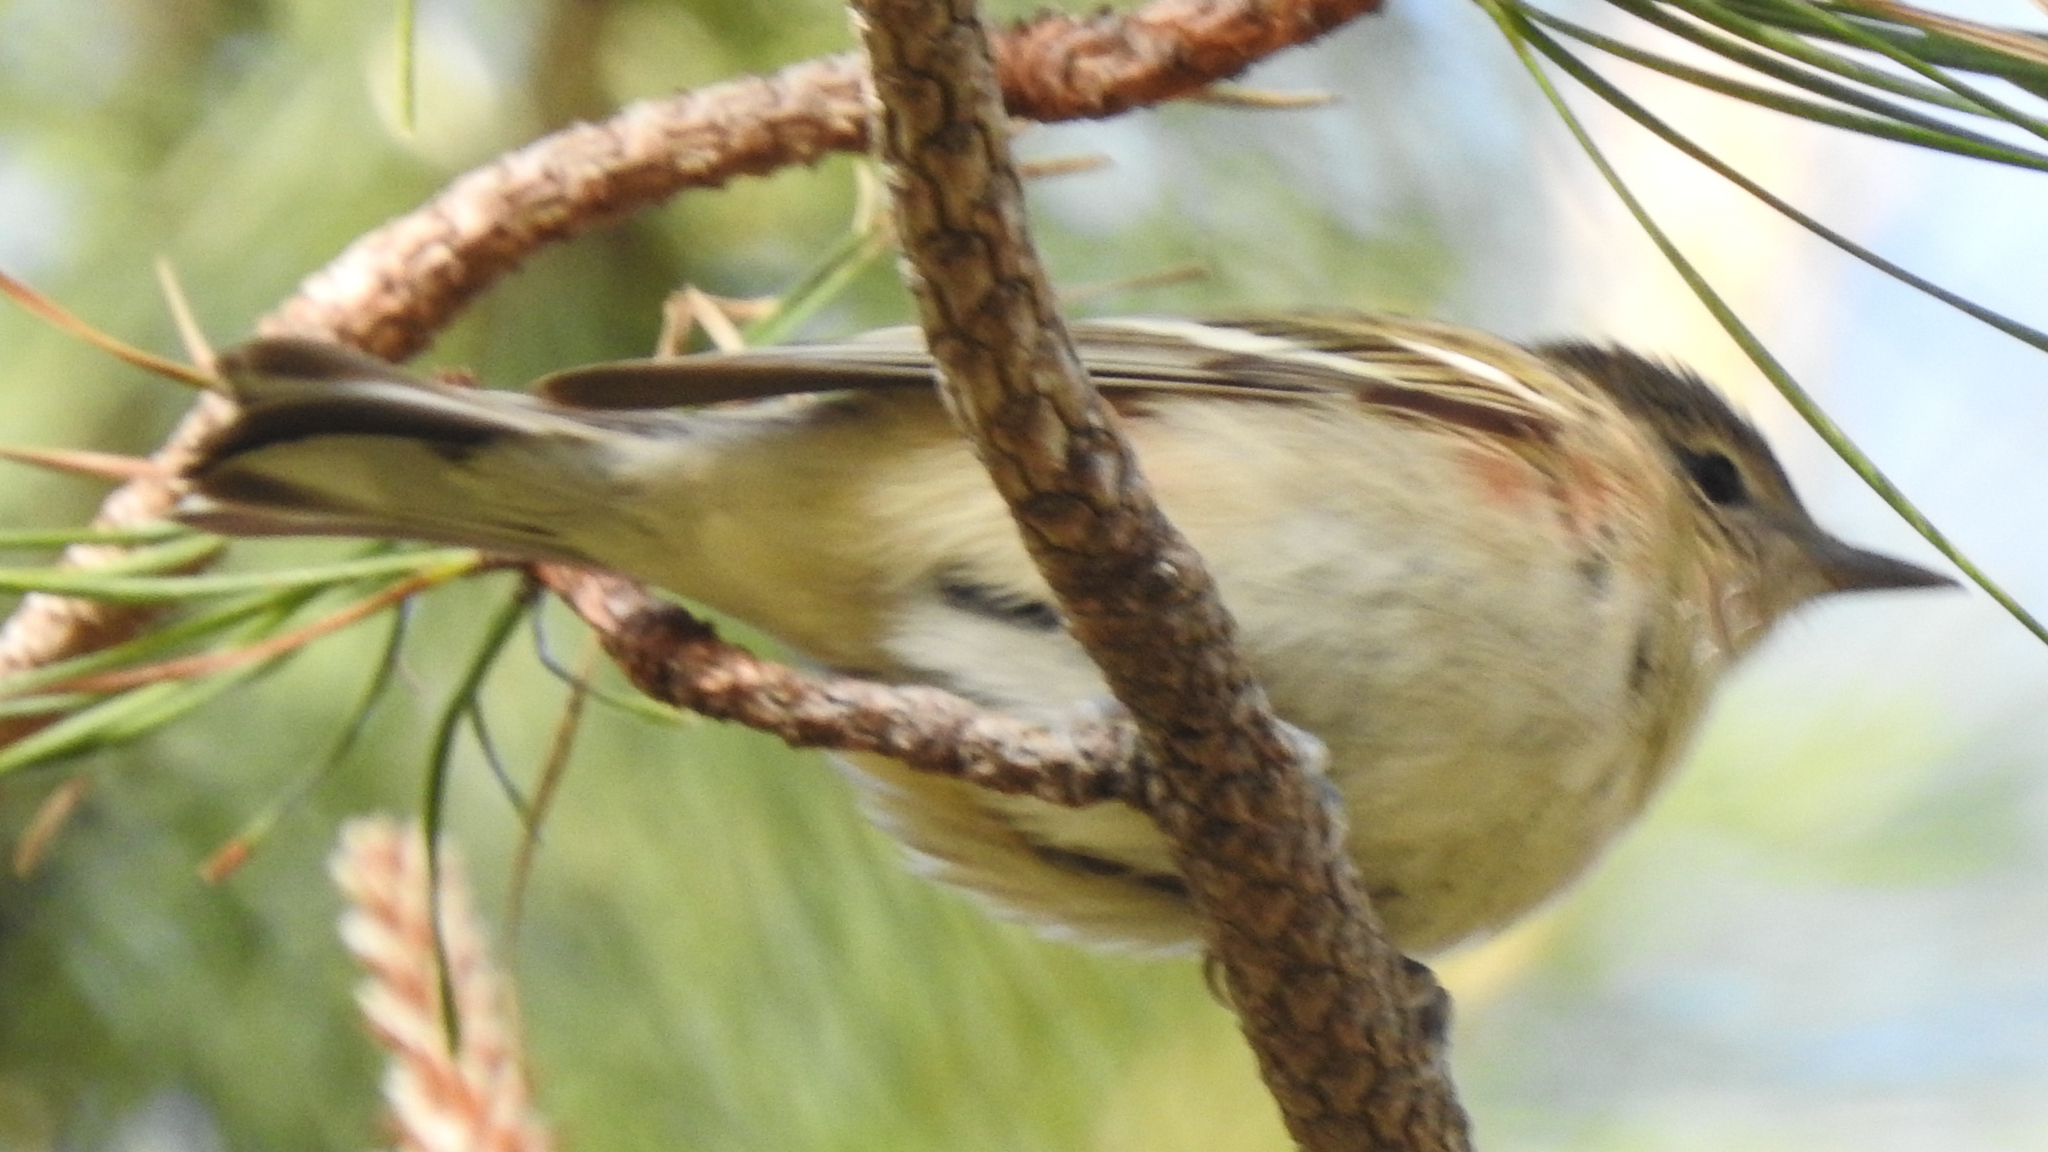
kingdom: Animalia
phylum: Chordata
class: Aves
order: Passeriformes
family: Parulidae
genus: Setophaga
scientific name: Setophaga castanea
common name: Bay-breasted warbler
